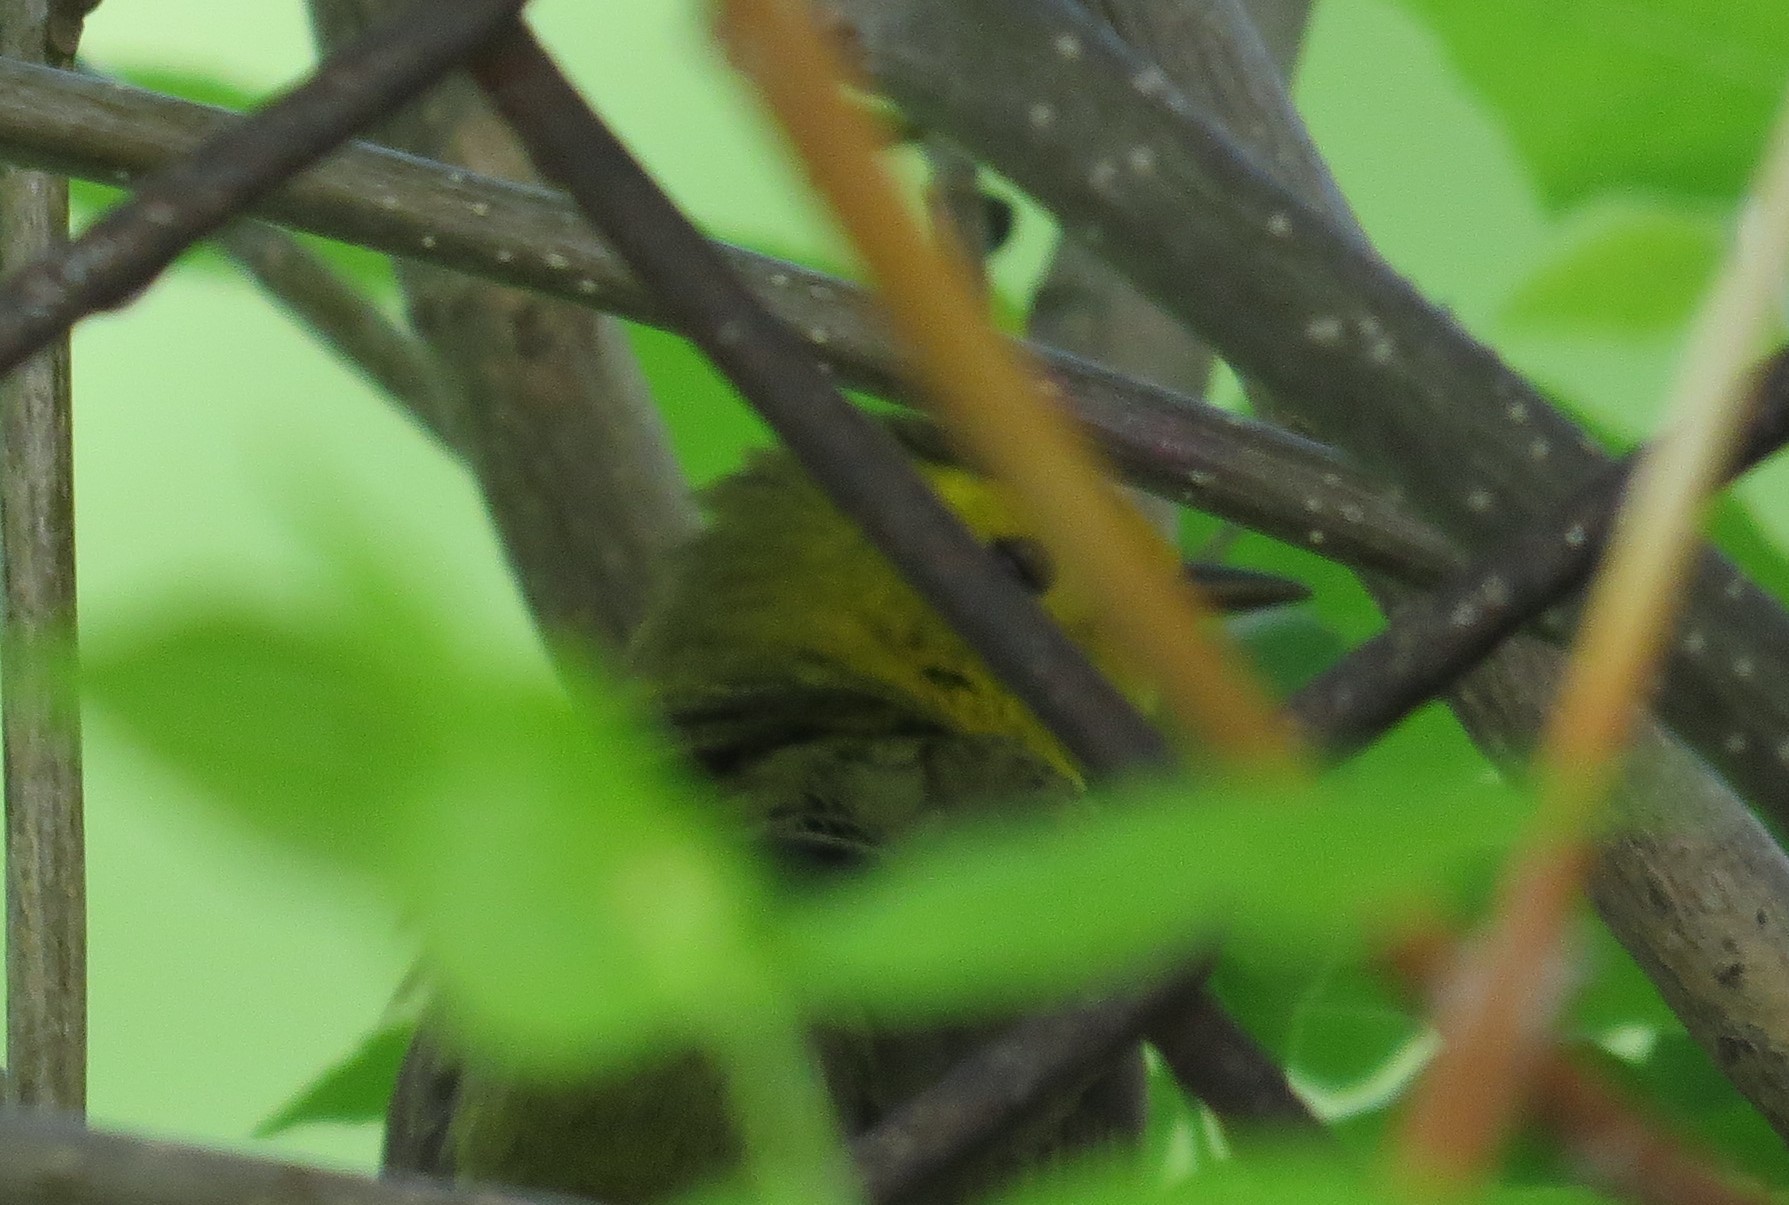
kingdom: Animalia
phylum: Chordata
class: Aves
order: Passeriformes
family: Parulidae
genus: Cardellina
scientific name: Cardellina pusilla
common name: Wilson's warbler
